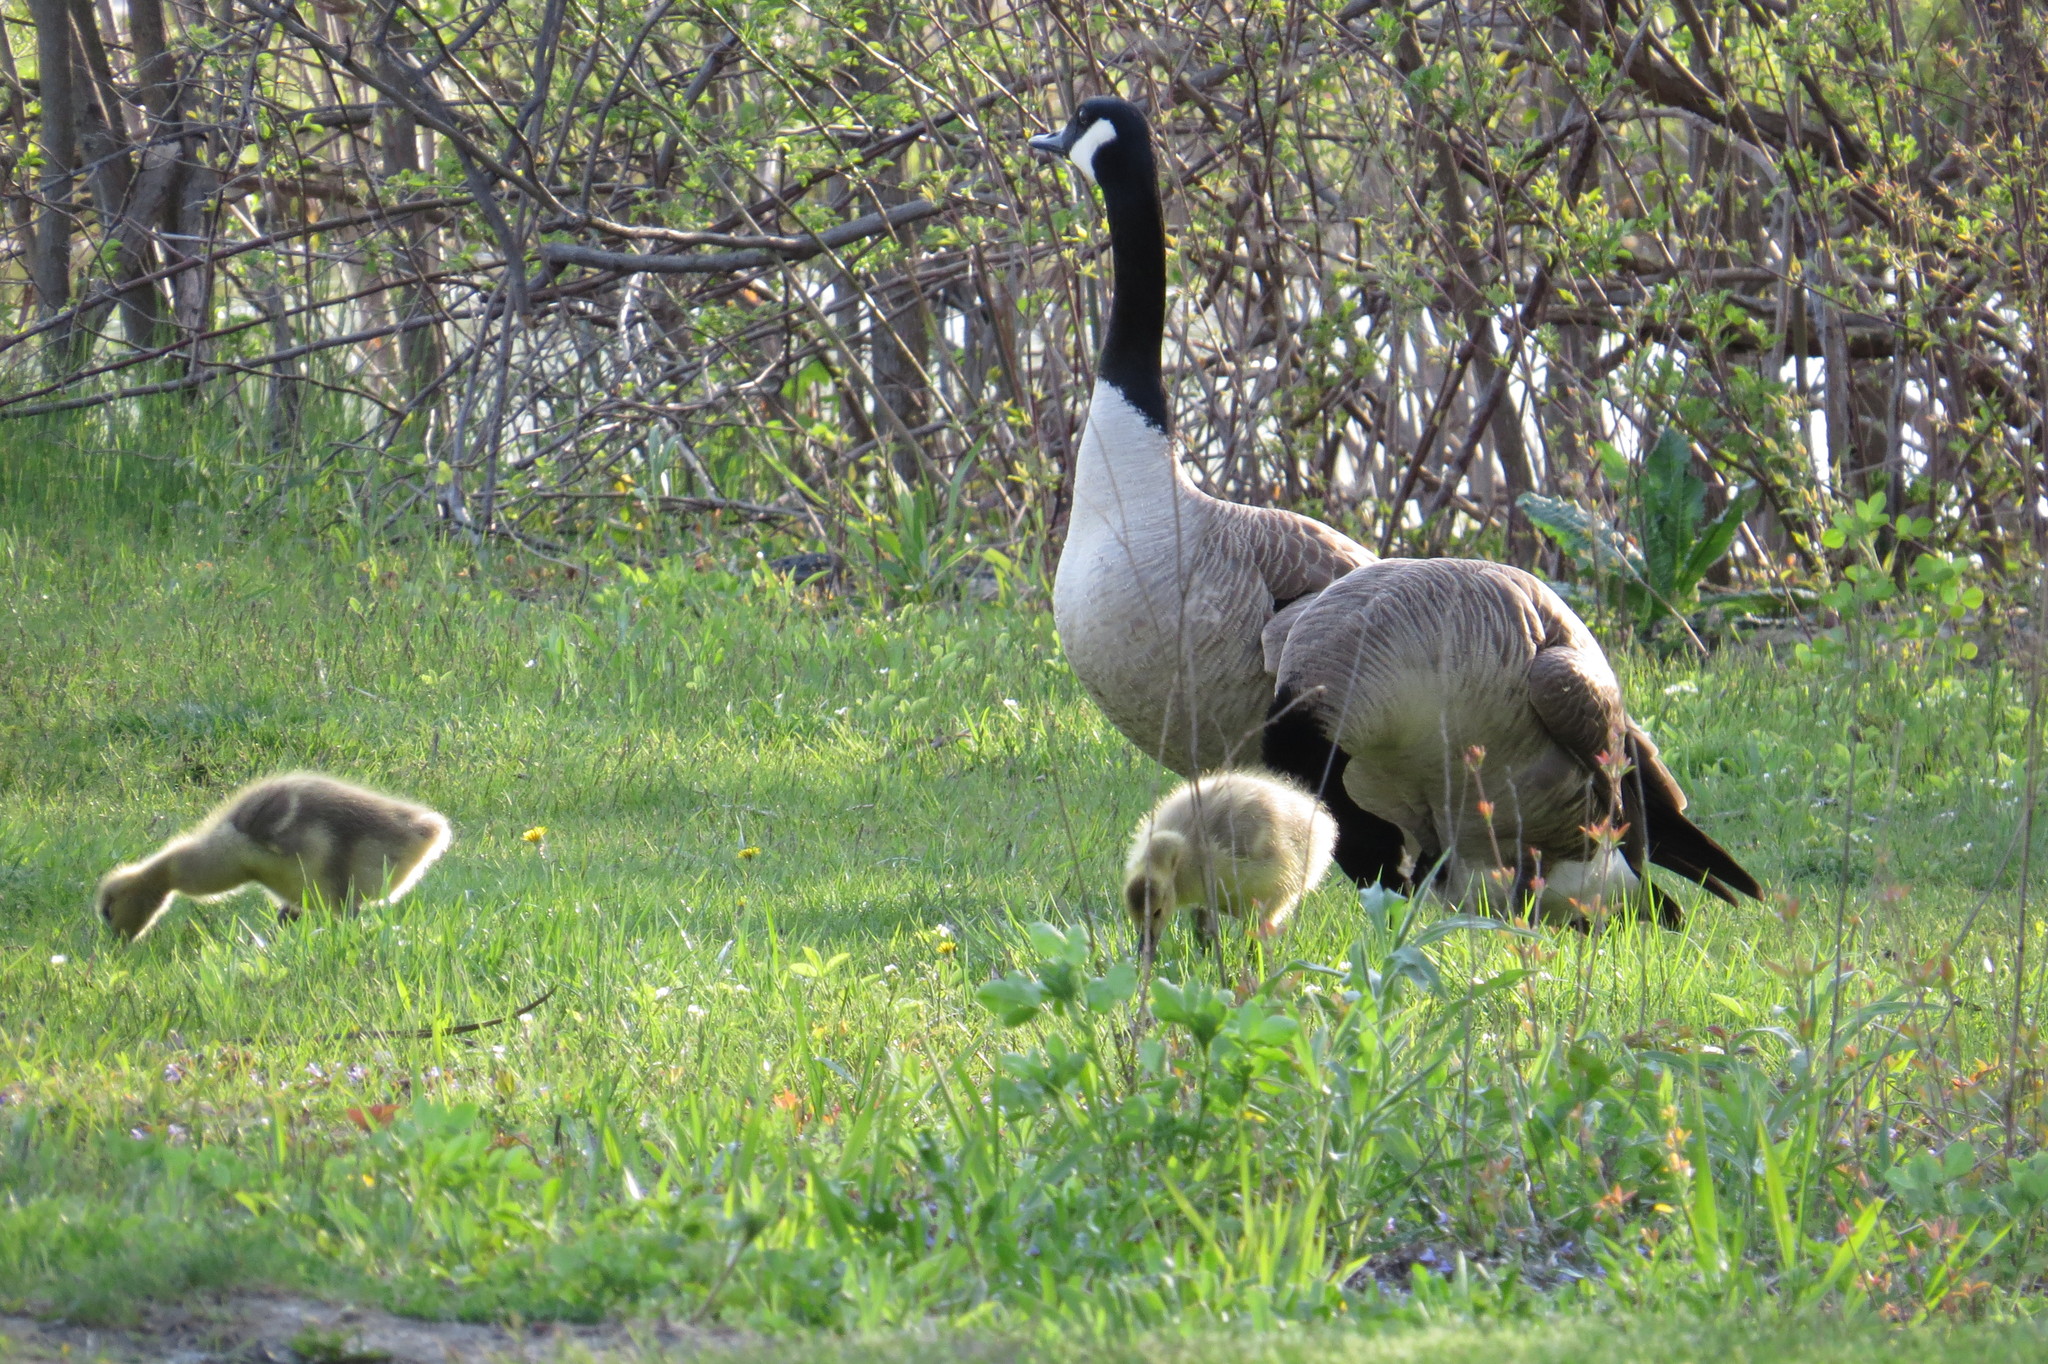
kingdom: Animalia
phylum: Chordata
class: Aves
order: Anseriformes
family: Anatidae
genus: Branta
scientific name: Branta canadensis
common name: Canada goose
